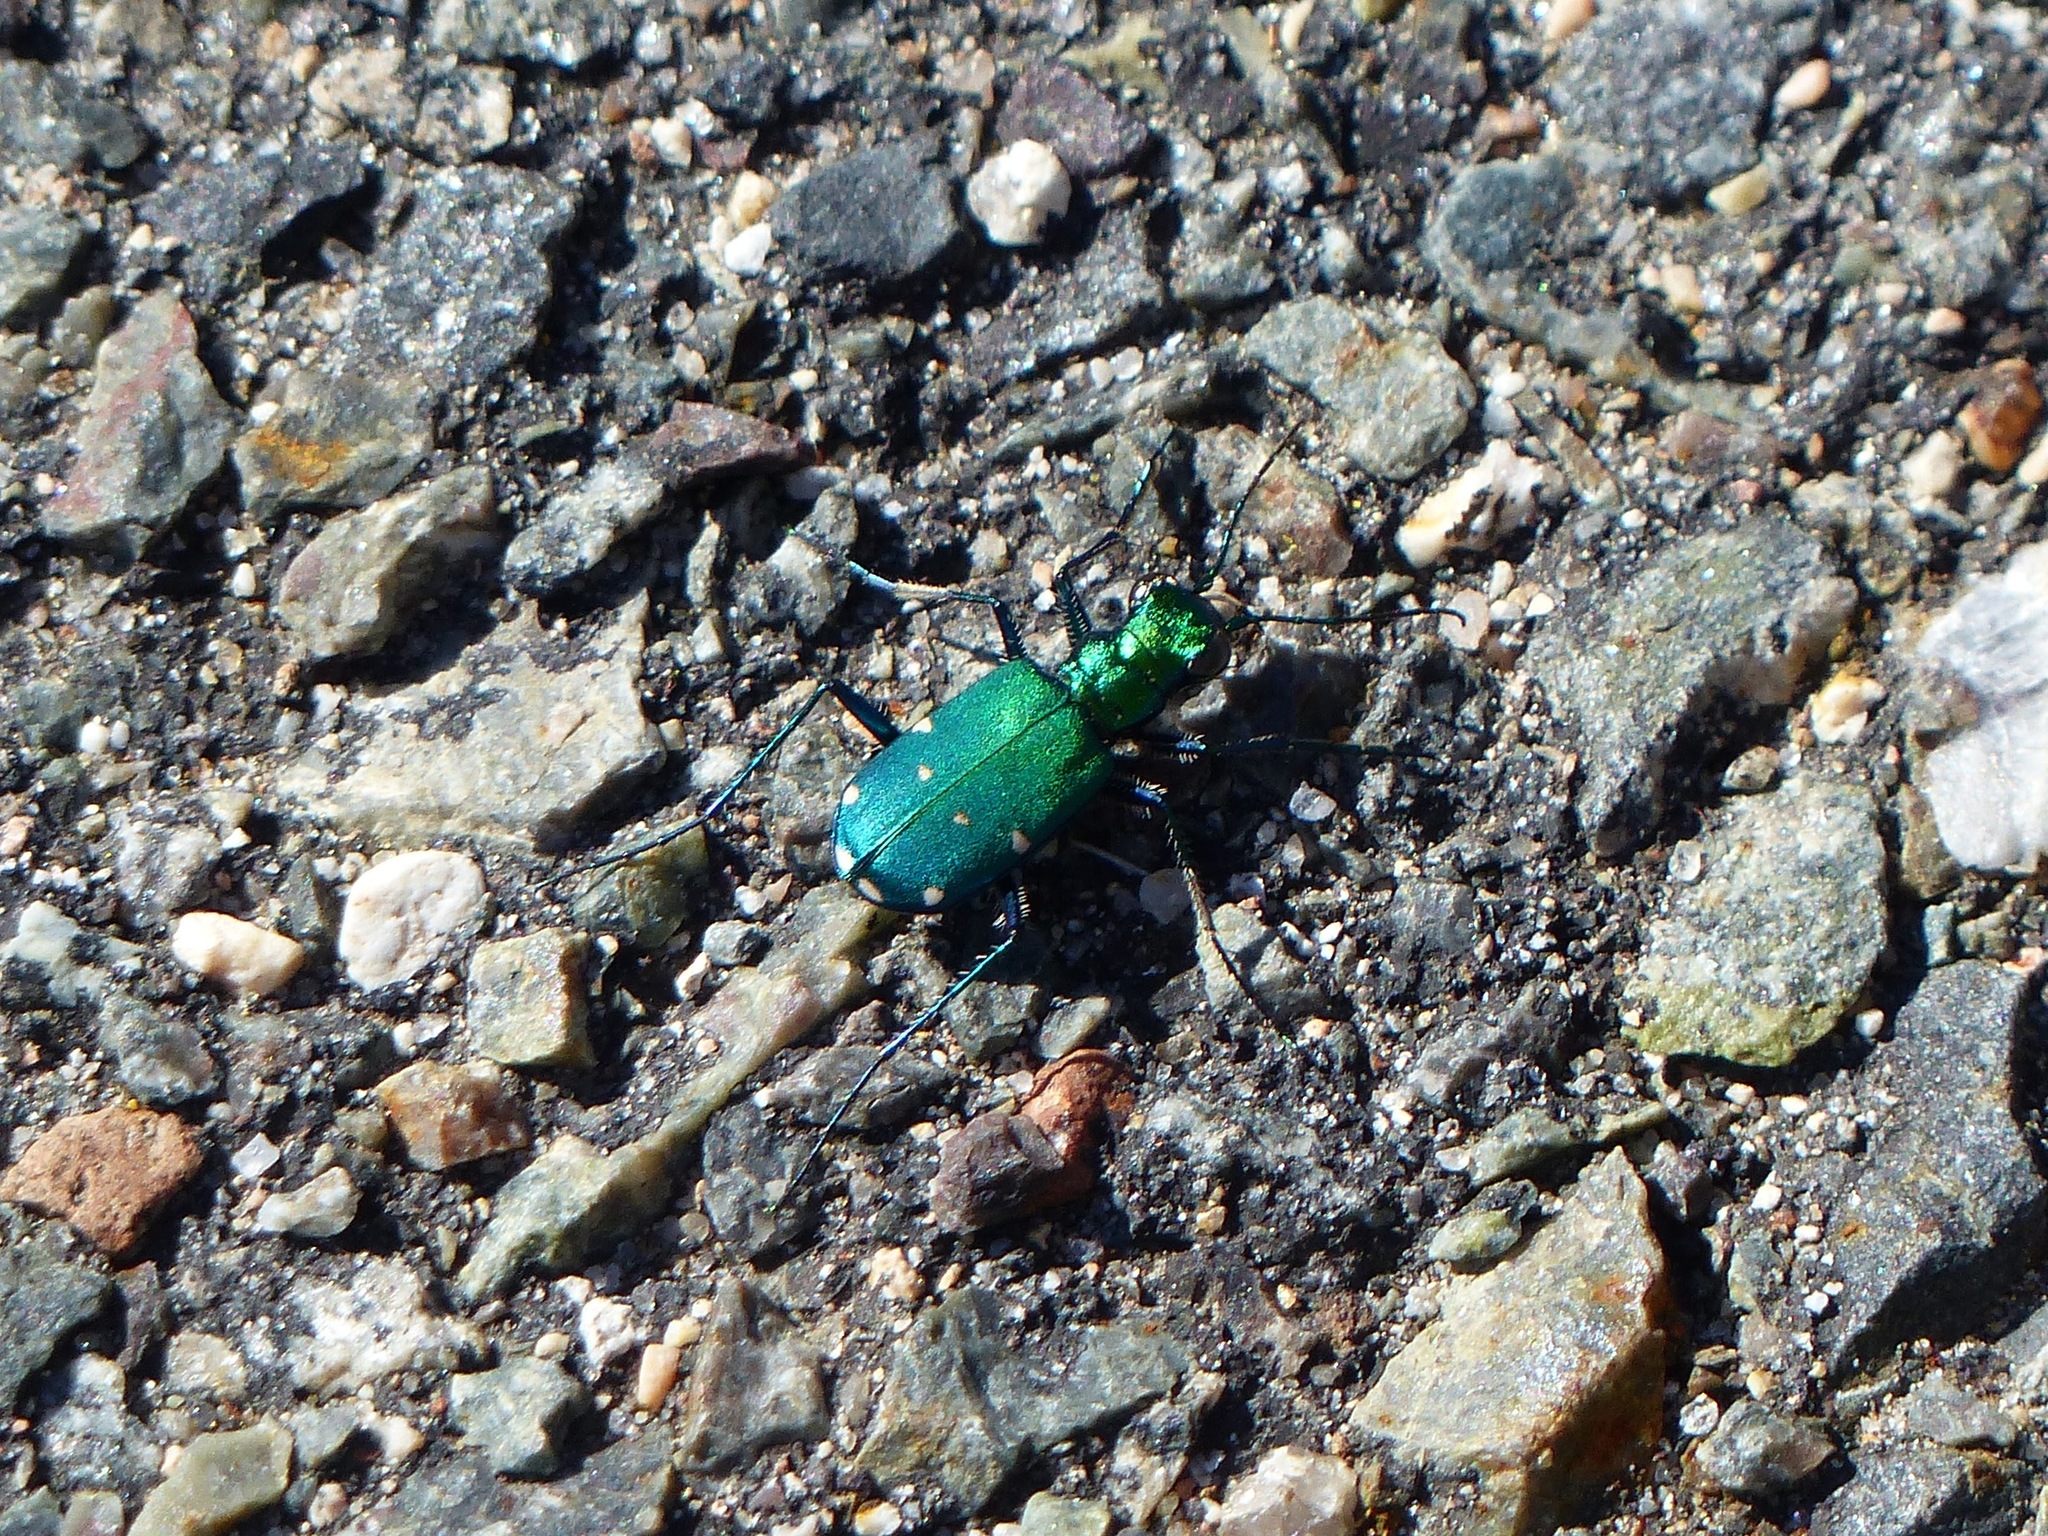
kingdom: Animalia
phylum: Arthropoda
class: Insecta
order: Coleoptera
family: Carabidae
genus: Cicindela
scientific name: Cicindela sexguttata
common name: Six-spotted tiger beetle
